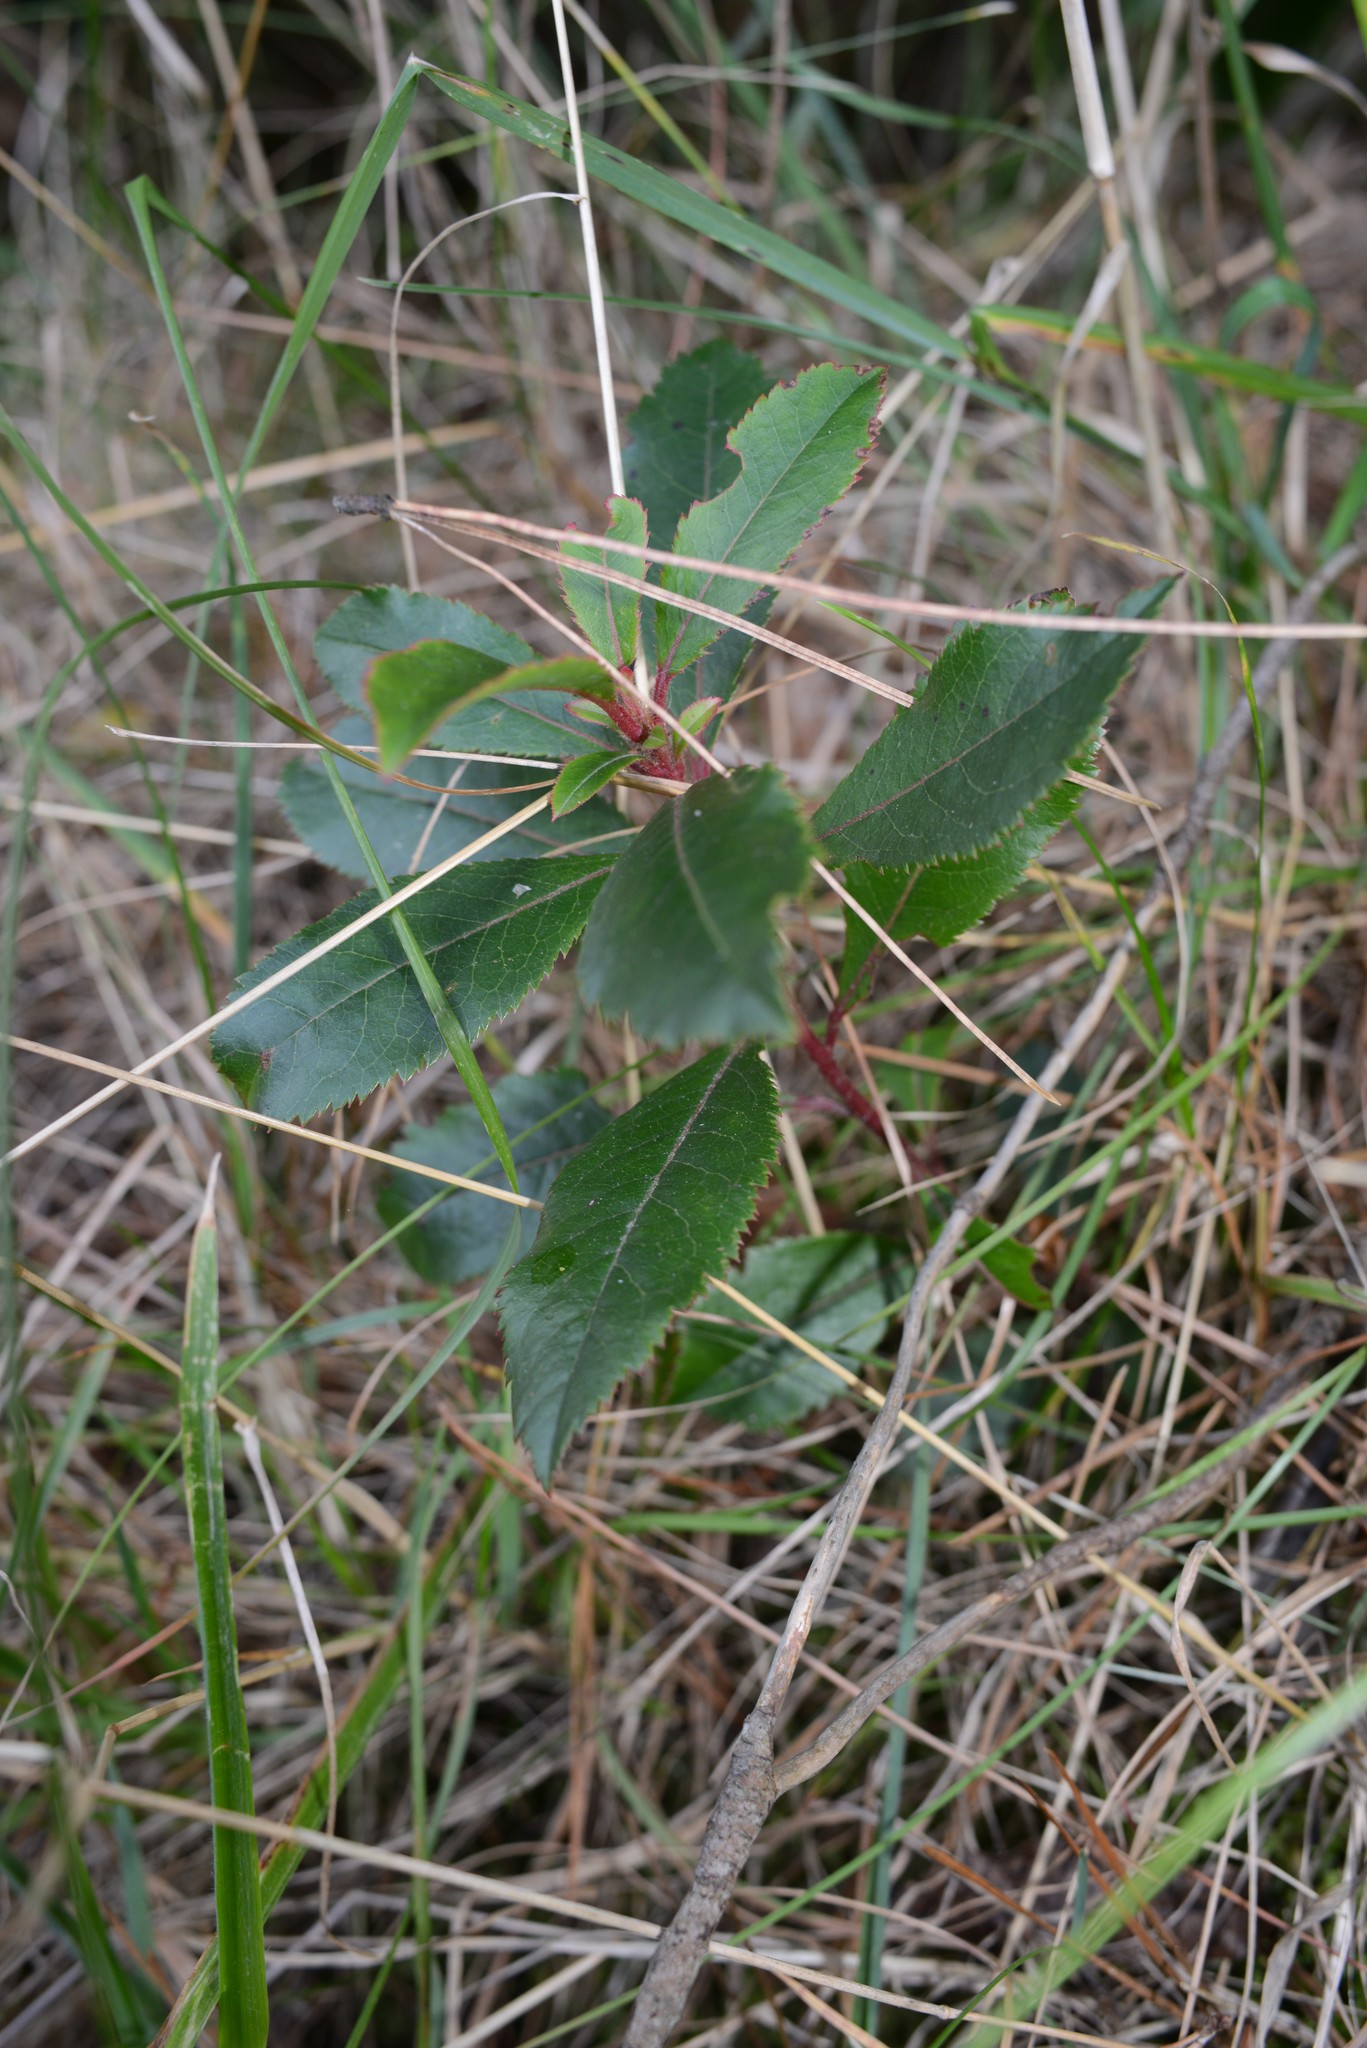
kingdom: Plantae
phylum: Tracheophyta
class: Magnoliopsida
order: Escalloniales
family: Escalloniaceae
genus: Escallonia
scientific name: Escallonia rubra
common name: Redclaws
